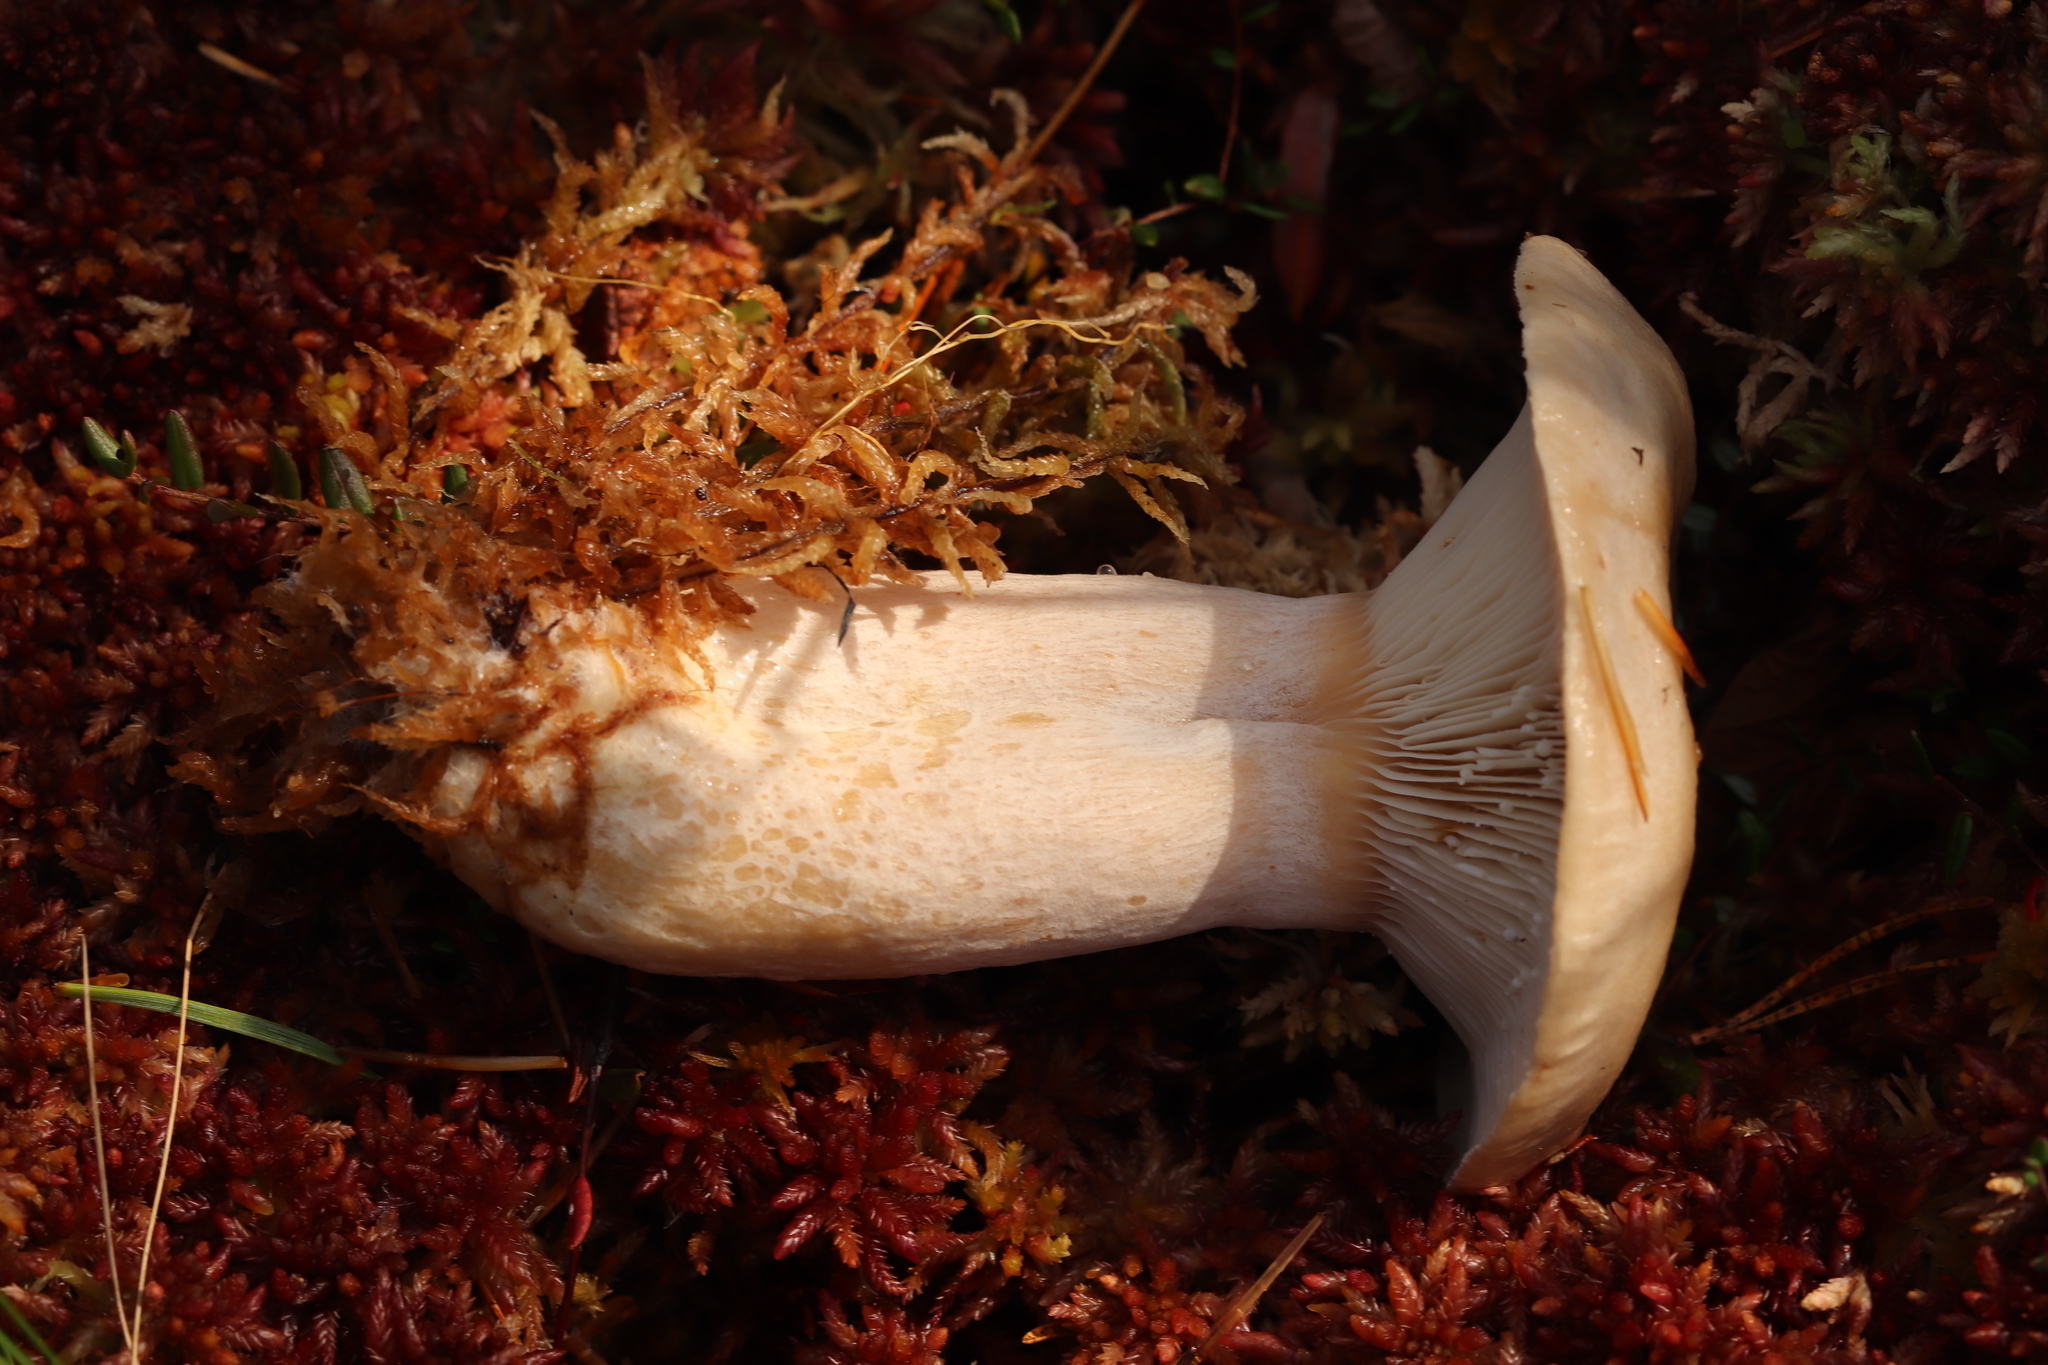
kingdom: Fungi
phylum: Basidiomycota
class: Agaricomycetes
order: Russulales
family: Russulaceae
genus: Lactarius
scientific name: Lactarius musteus
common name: Pine milkcap
